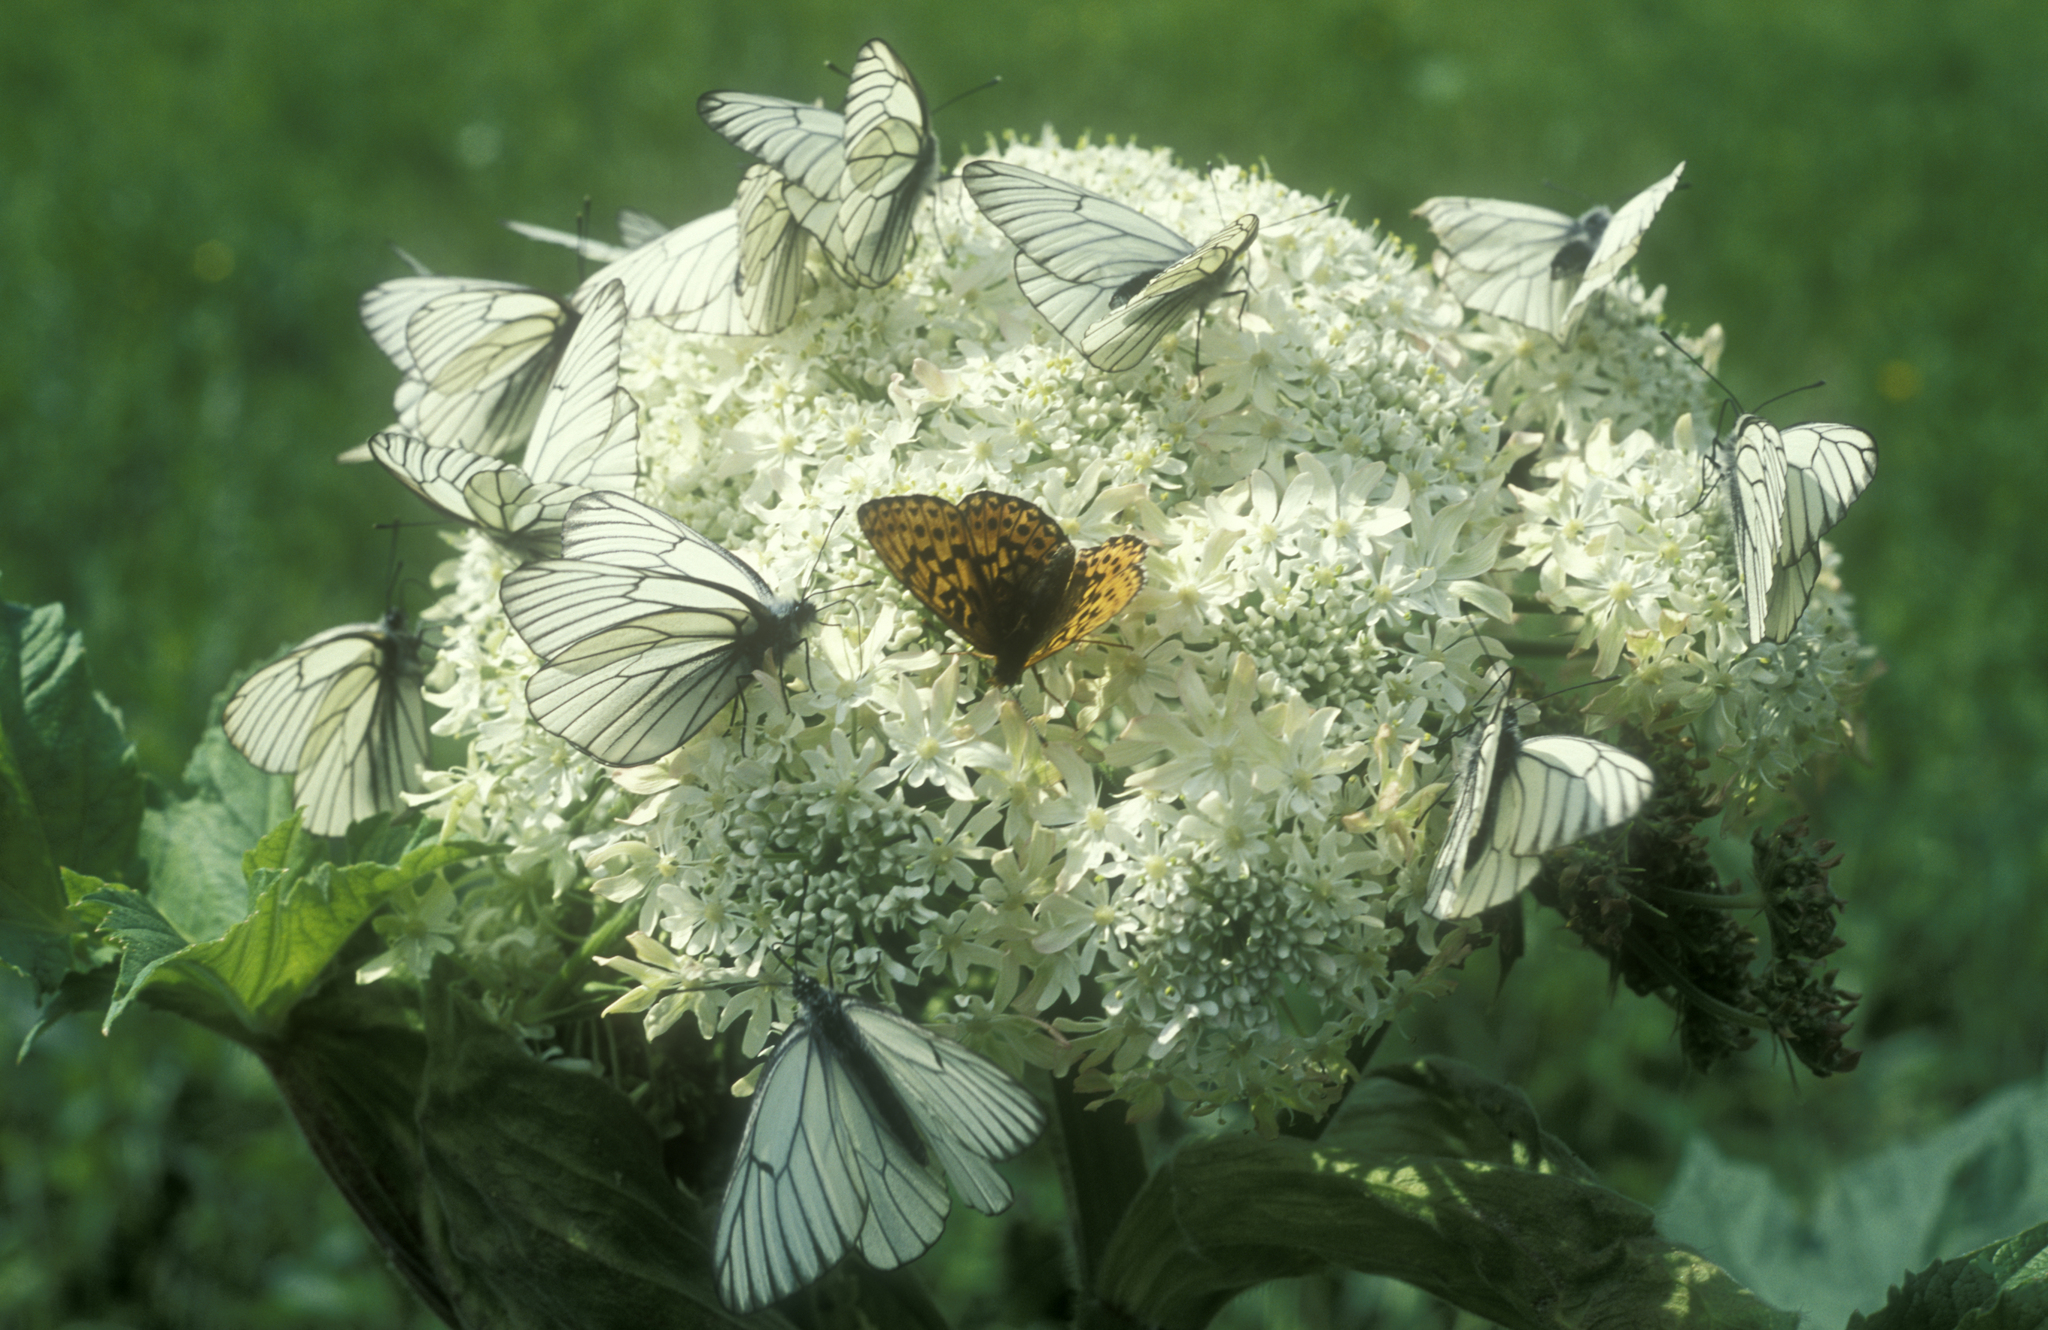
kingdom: Animalia
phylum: Arthropoda
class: Insecta
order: Lepidoptera
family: Nymphalidae
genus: Clossiana
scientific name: Clossiana oscarus
